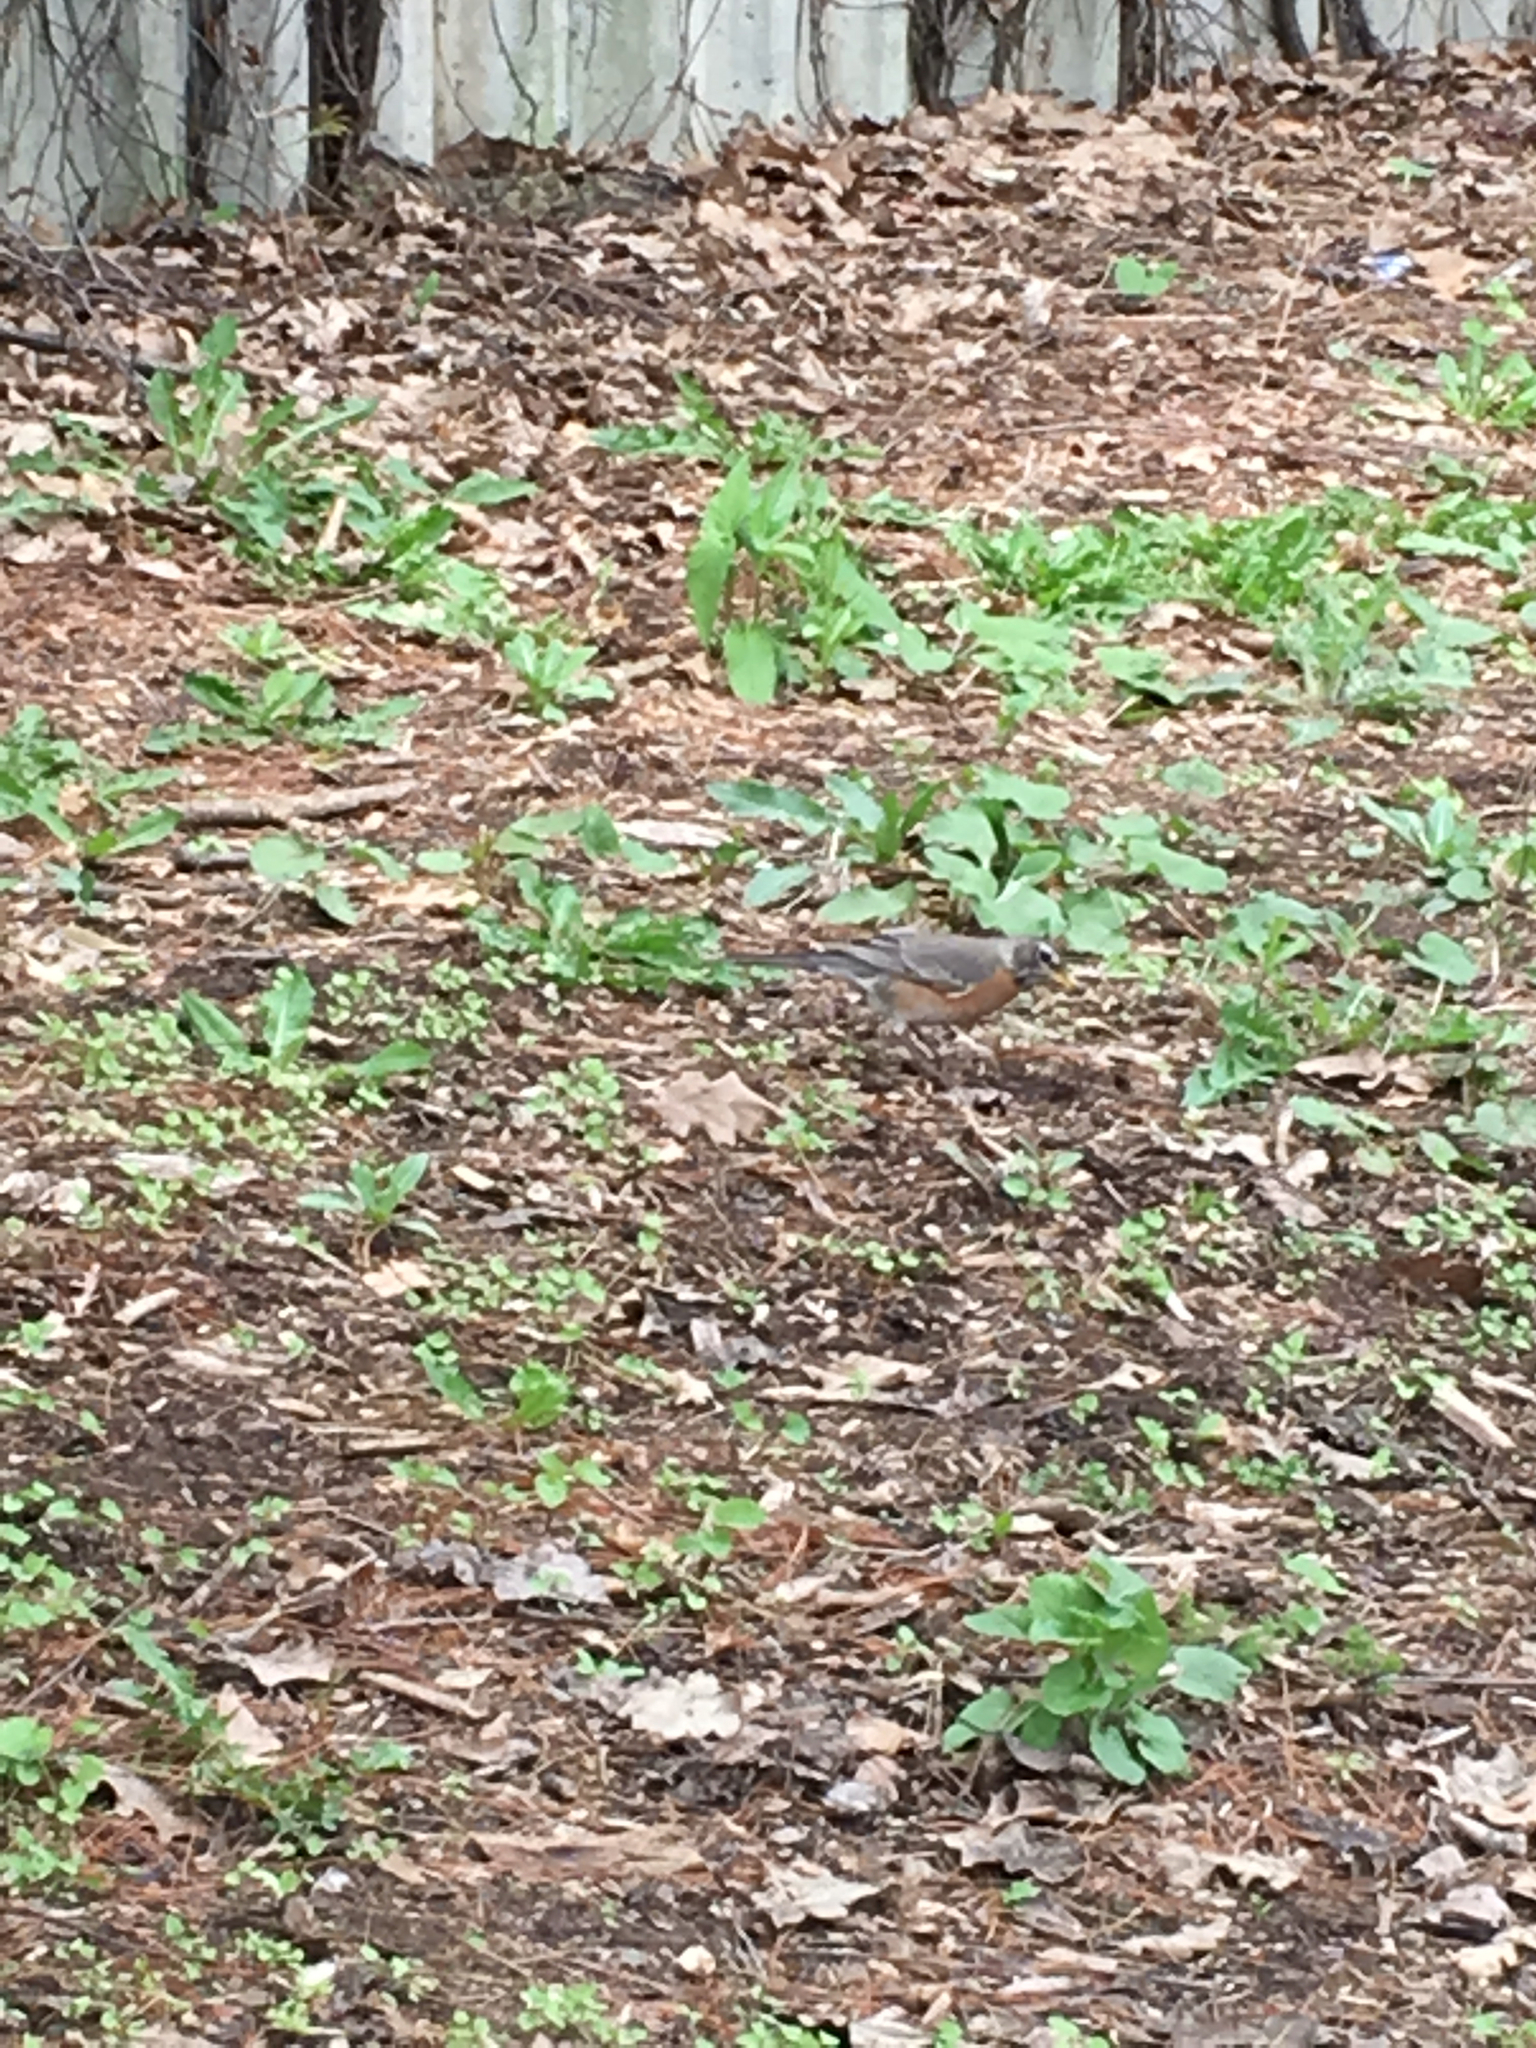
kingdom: Animalia
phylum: Chordata
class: Aves
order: Passeriformes
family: Turdidae
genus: Turdus
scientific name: Turdus migratorius
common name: American robin
